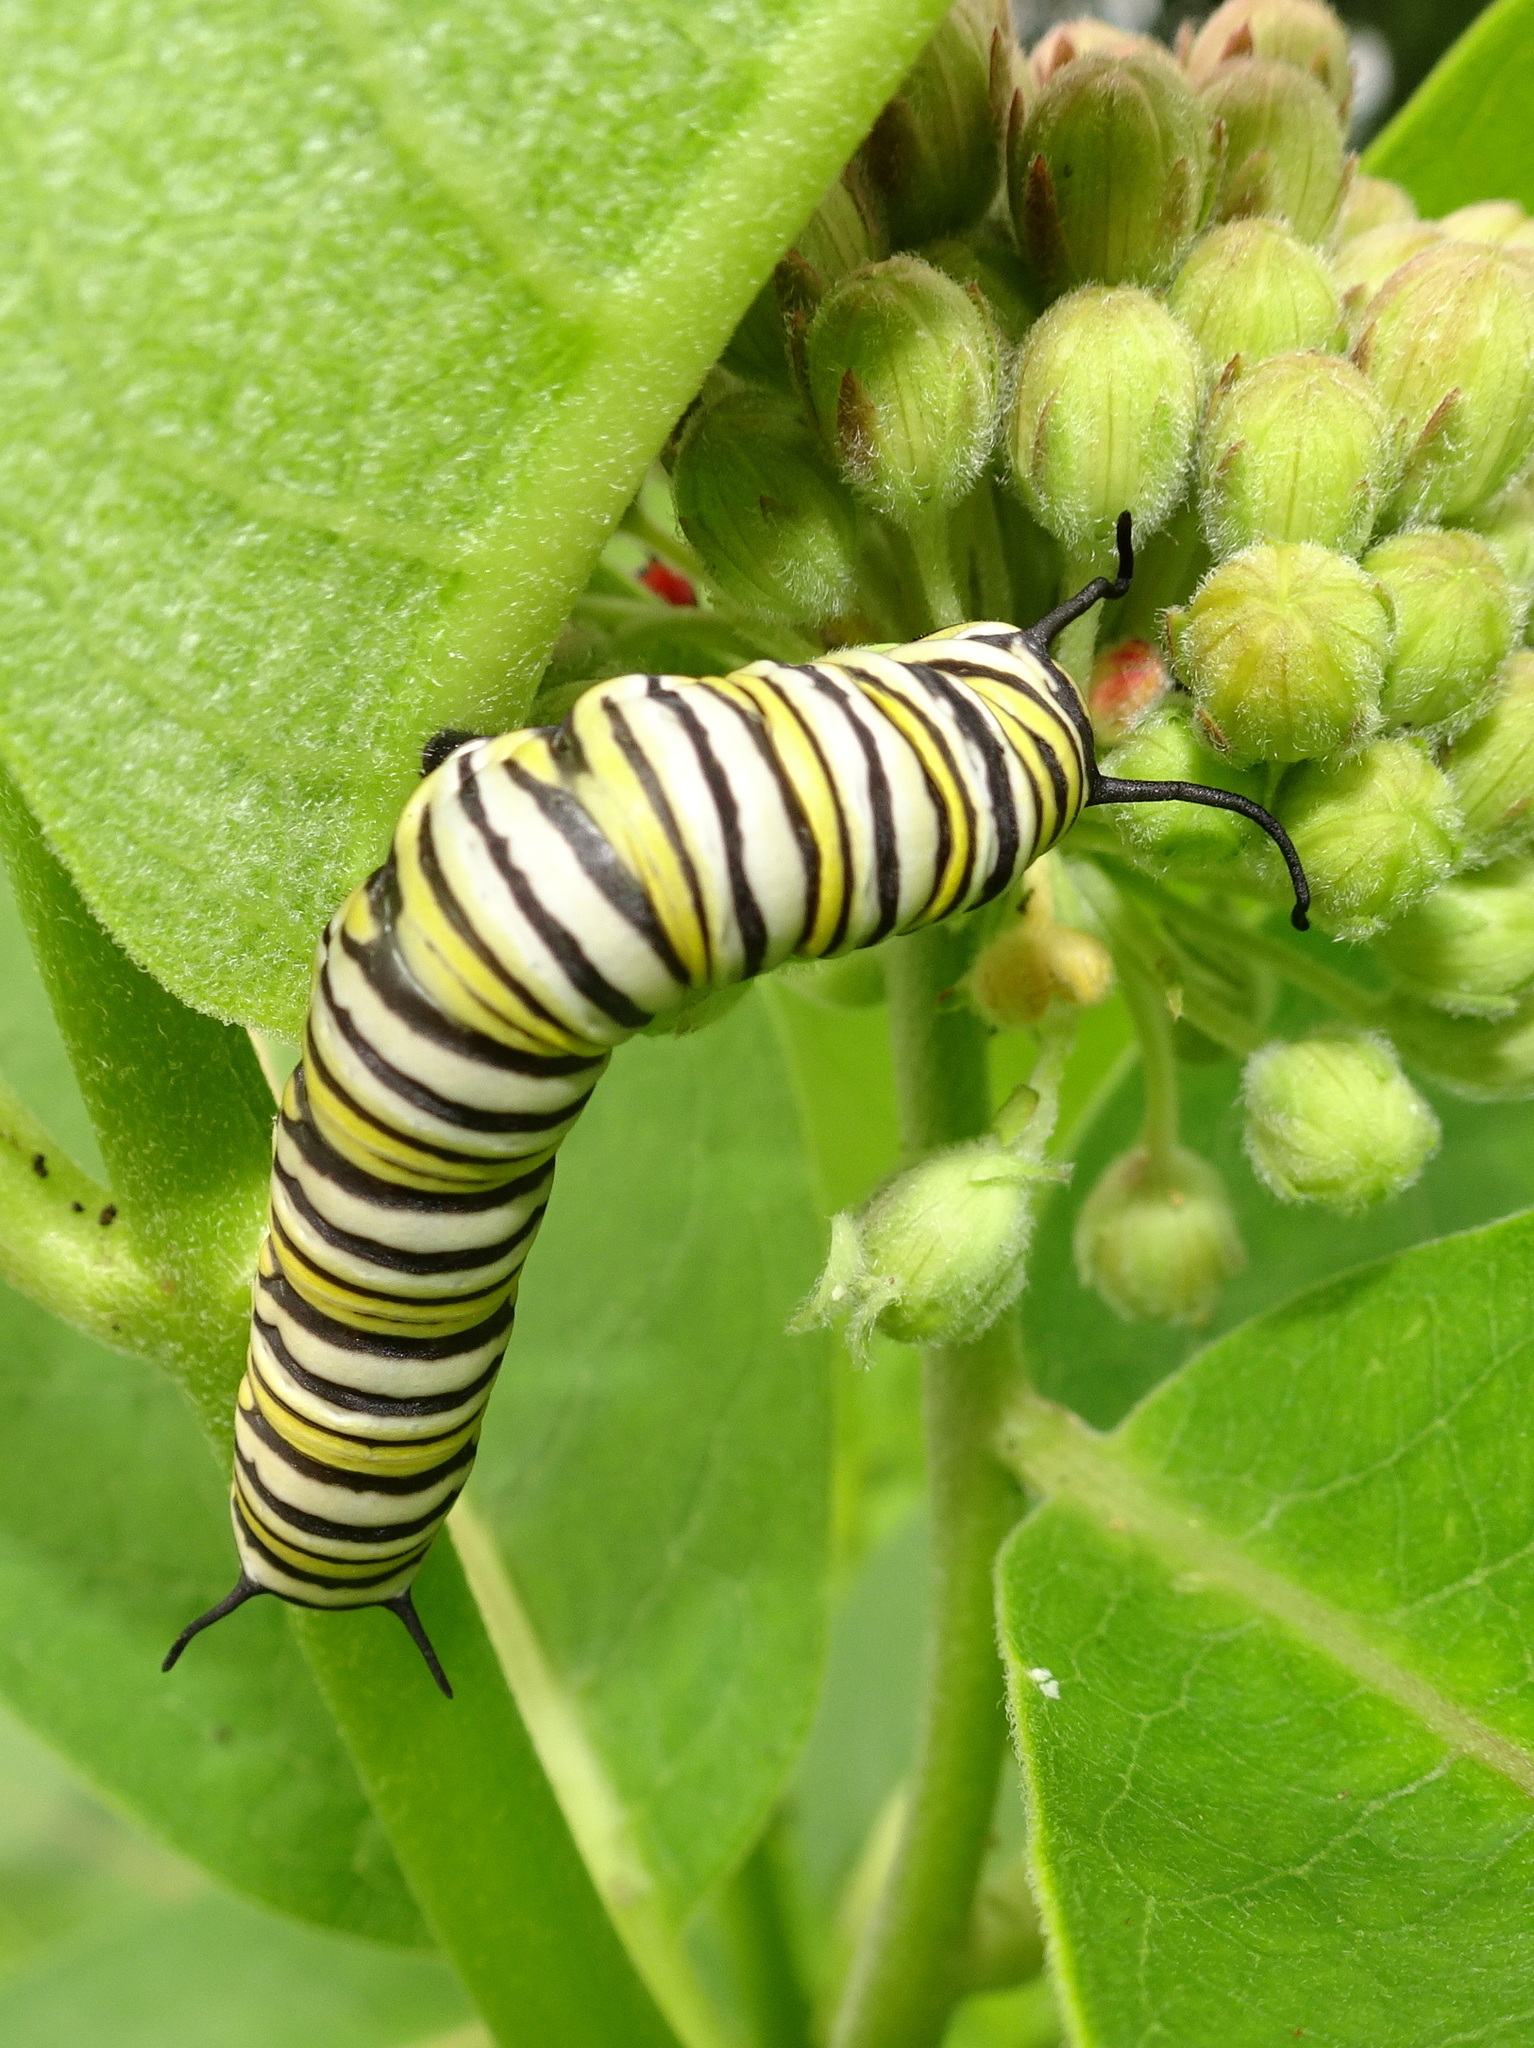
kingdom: Animalia
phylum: Arthropoda
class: Insecta
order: Lepidoptera
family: Nymphalidae
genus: Danaus
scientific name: Danaus plexippus
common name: Monarch
